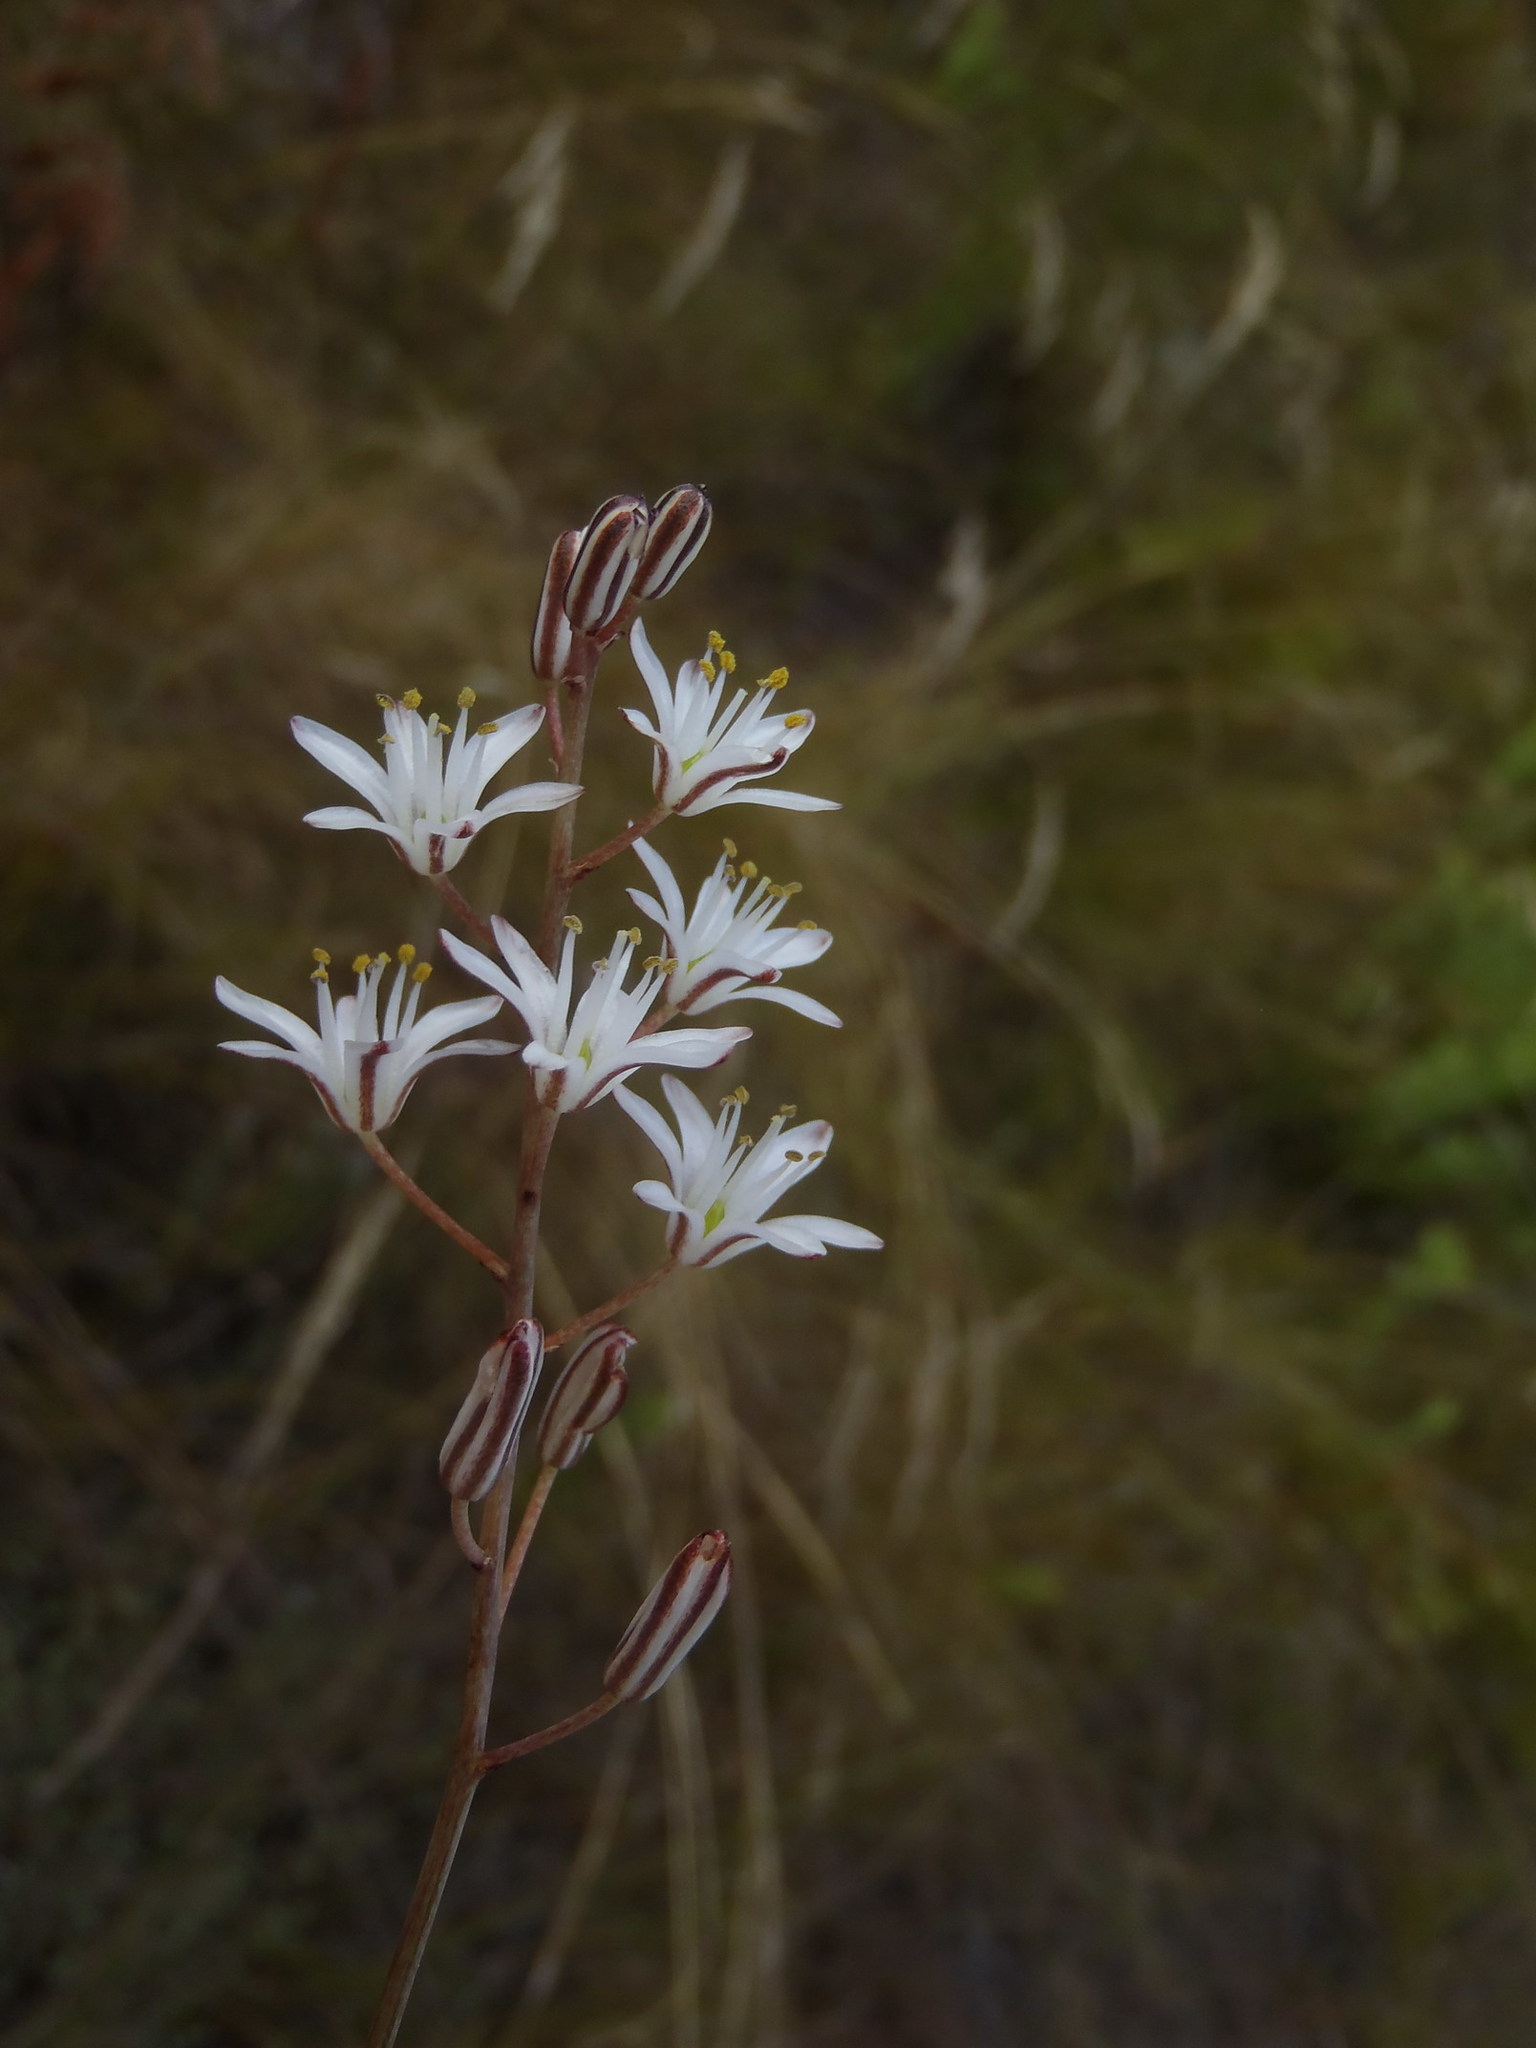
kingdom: Plantae
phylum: Tracheophyta
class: Liliopsida
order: Asparagales
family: Asparagaceae
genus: Eriospermum
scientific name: Eriospermum dielsianum
